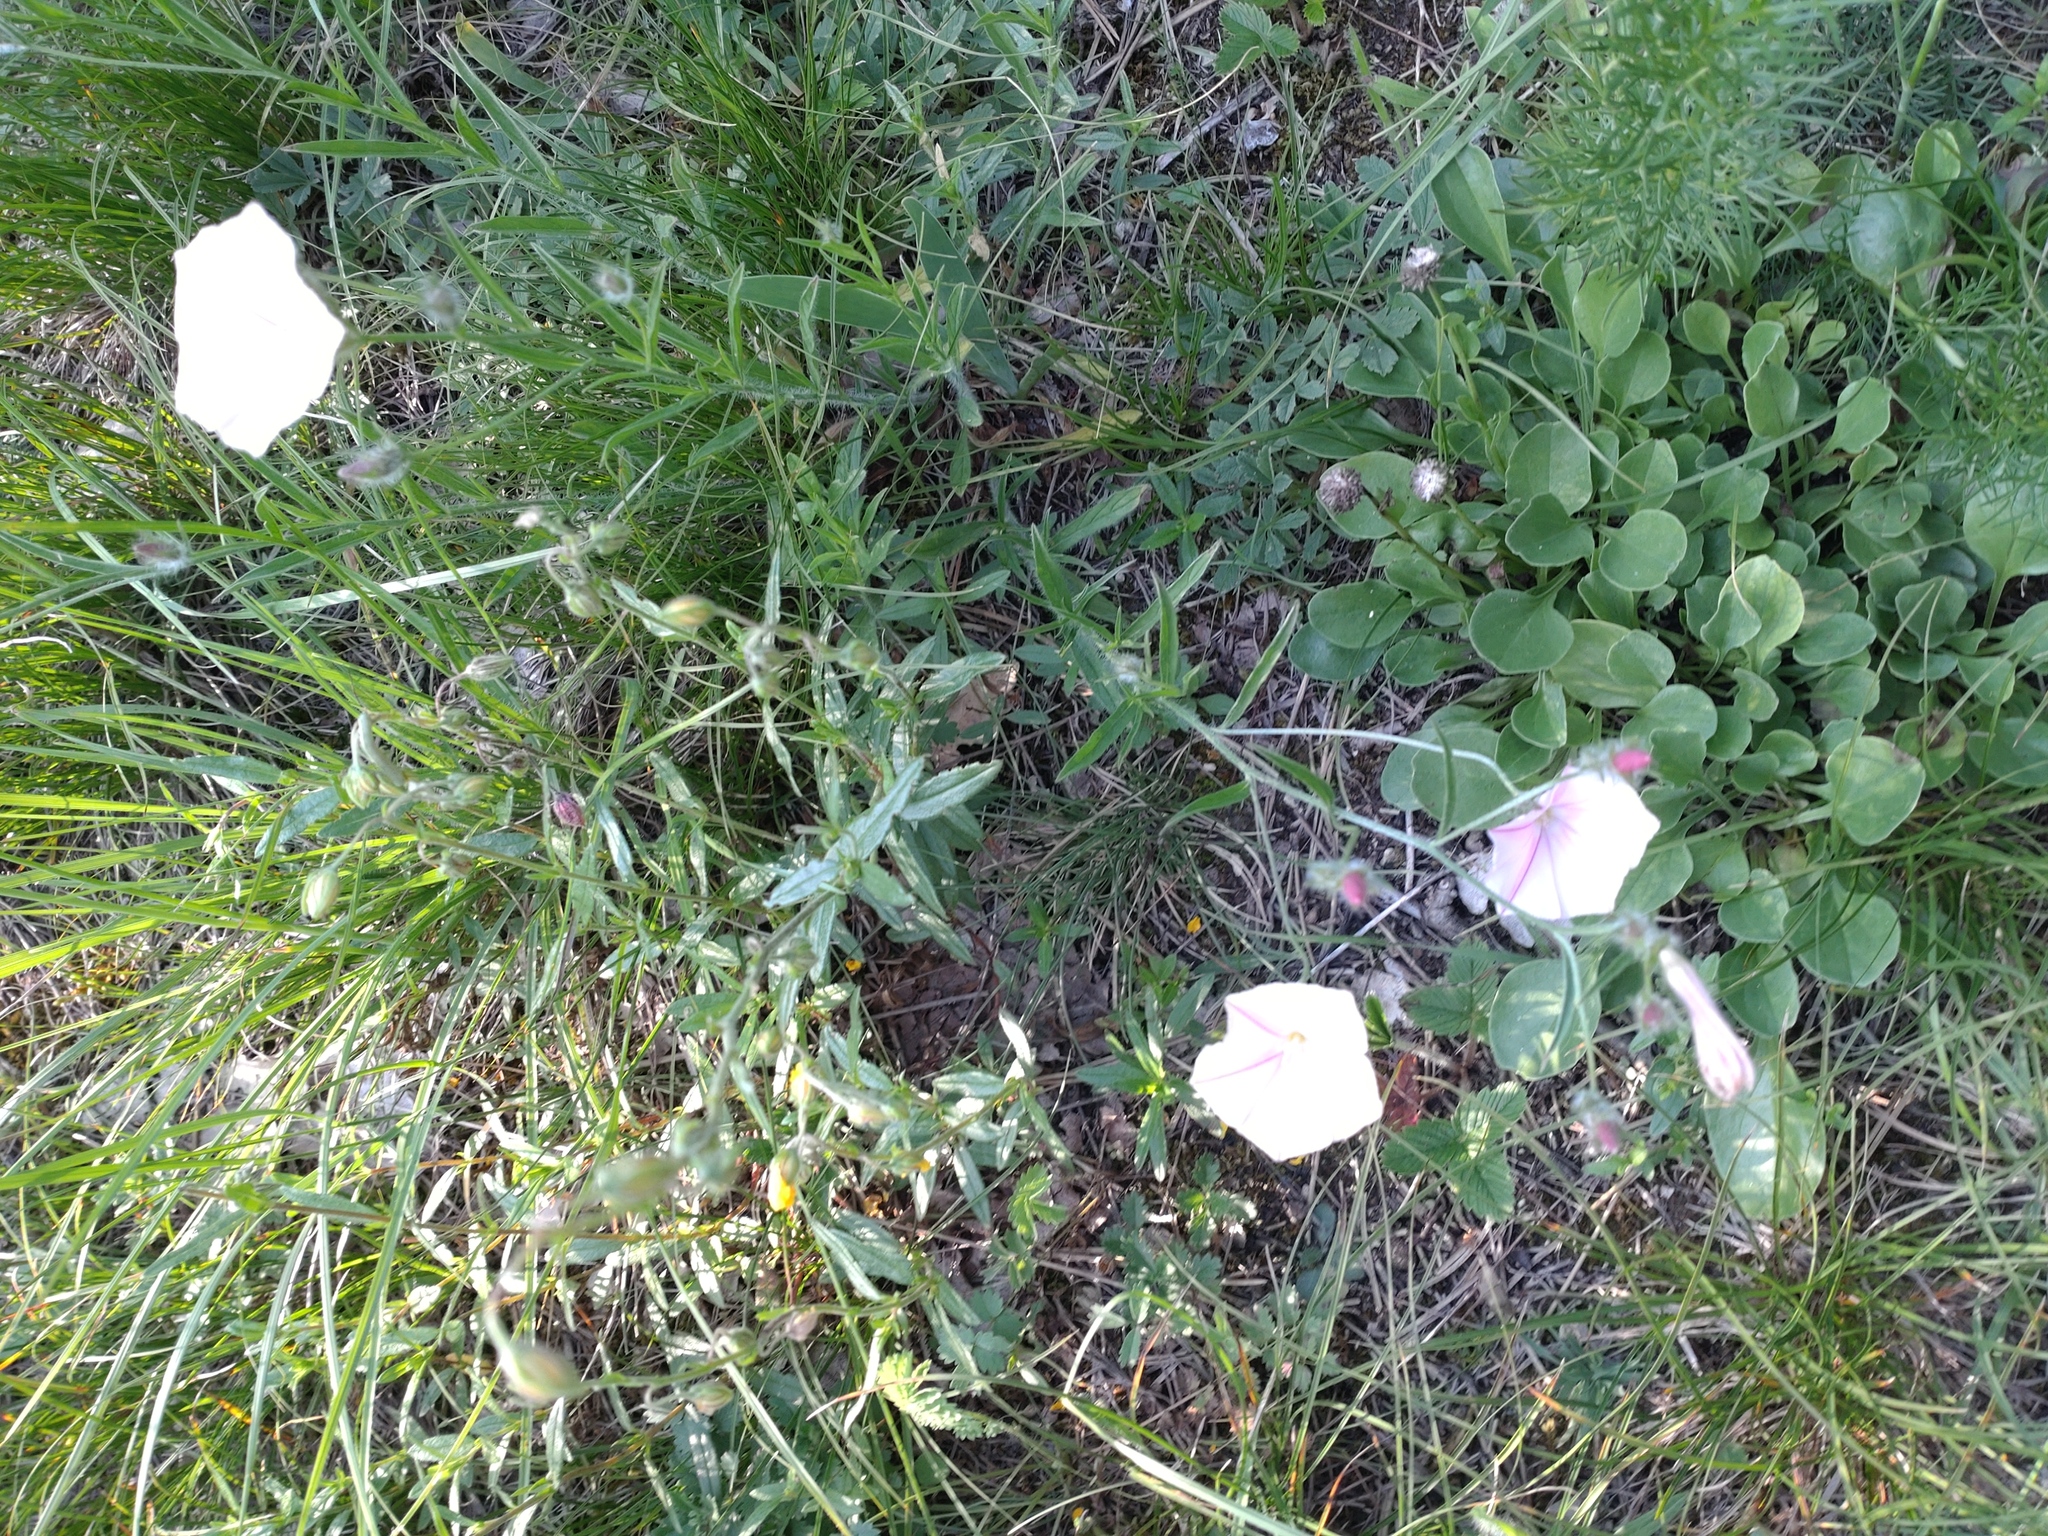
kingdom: Plantae
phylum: Tracheophyta
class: Magnoliopsida
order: Solanales
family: Convolvulaceae
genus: Convolvulus
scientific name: Convolvulus cantabrica
